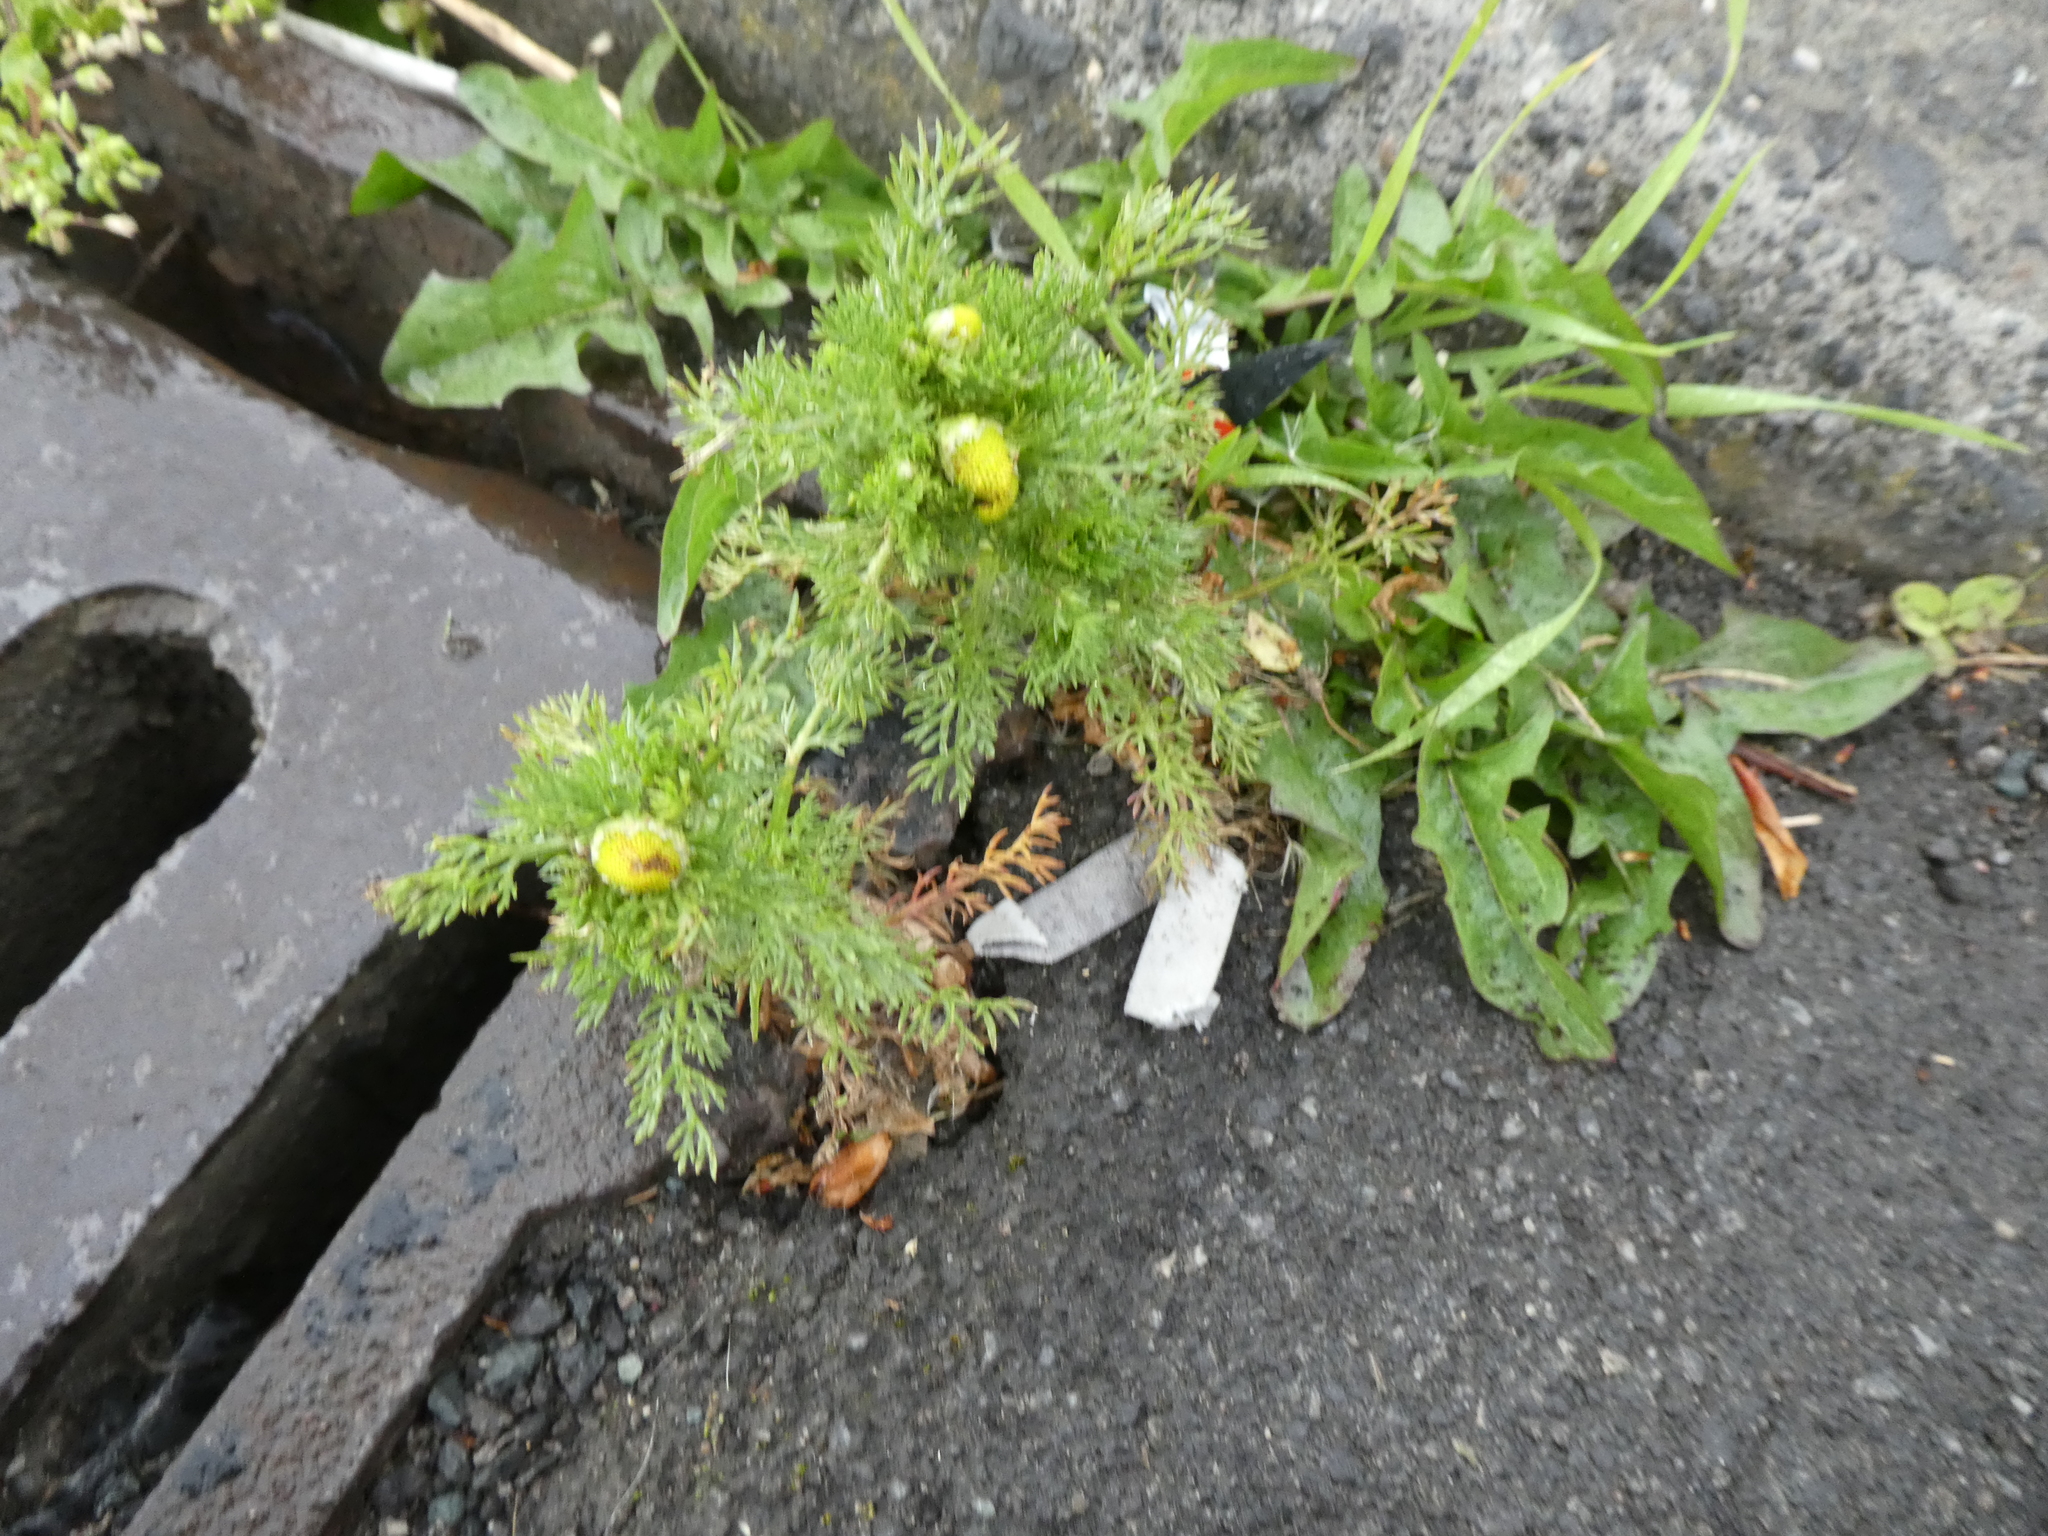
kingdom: Plantae
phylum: Tracheophyta
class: Magnoliopsida
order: Asterales
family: Asteraceae
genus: Matricaria
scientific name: Matricaria discoidea
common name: Disc mayweed
